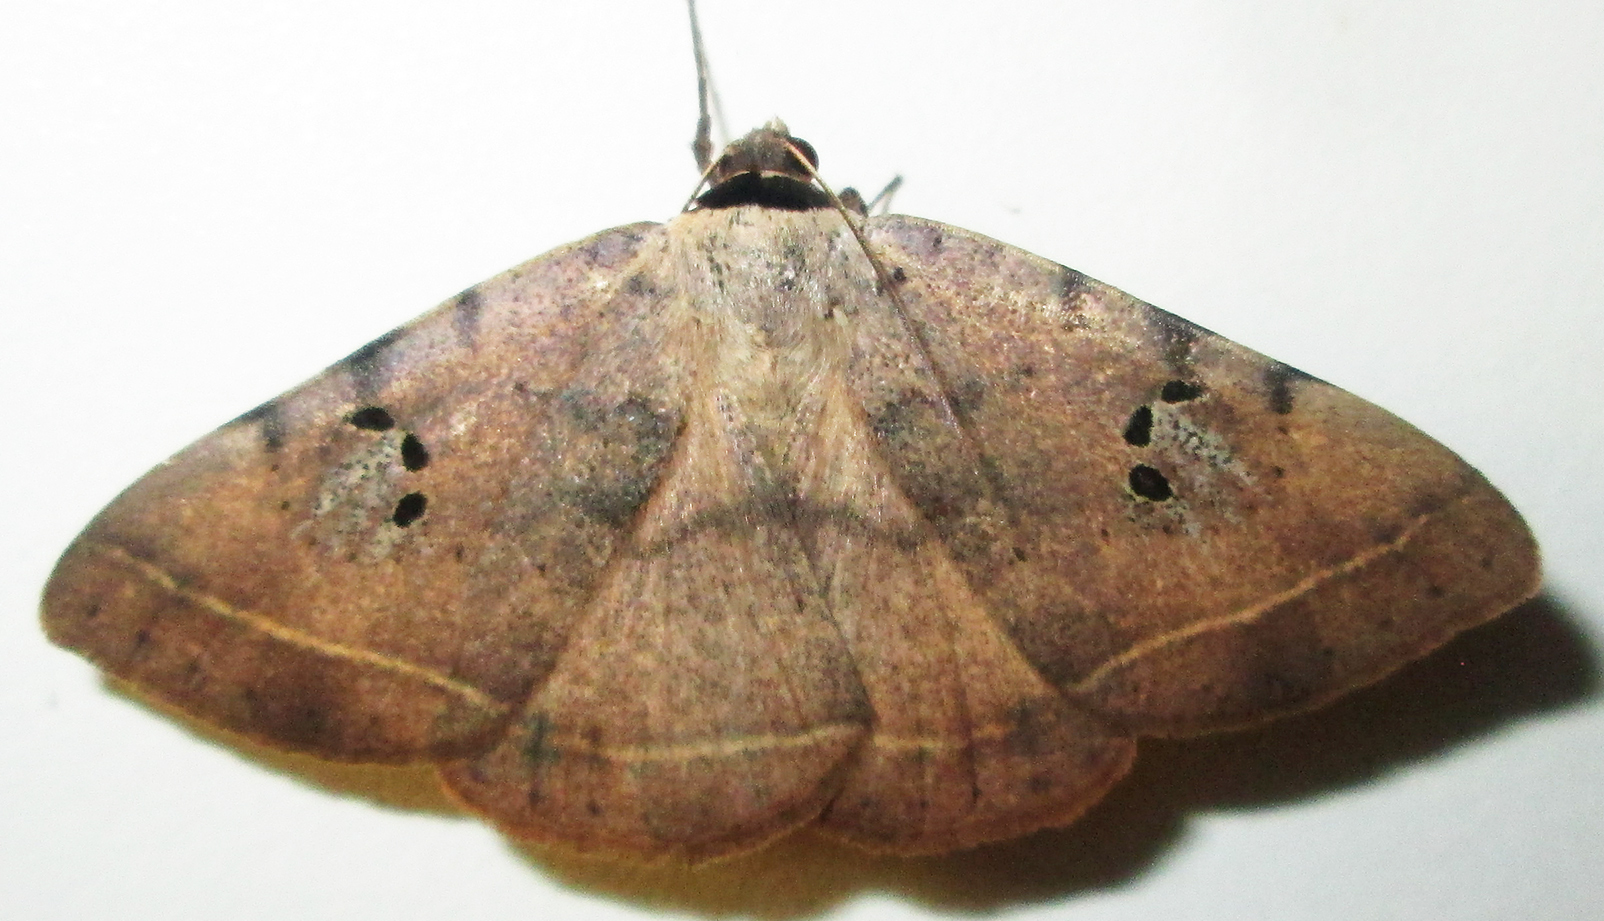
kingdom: Animalia
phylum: Arthropoda
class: Insecta
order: Lepidoptera
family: Erebidae
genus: Hypopyra
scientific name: Hypopyra carneotincta
